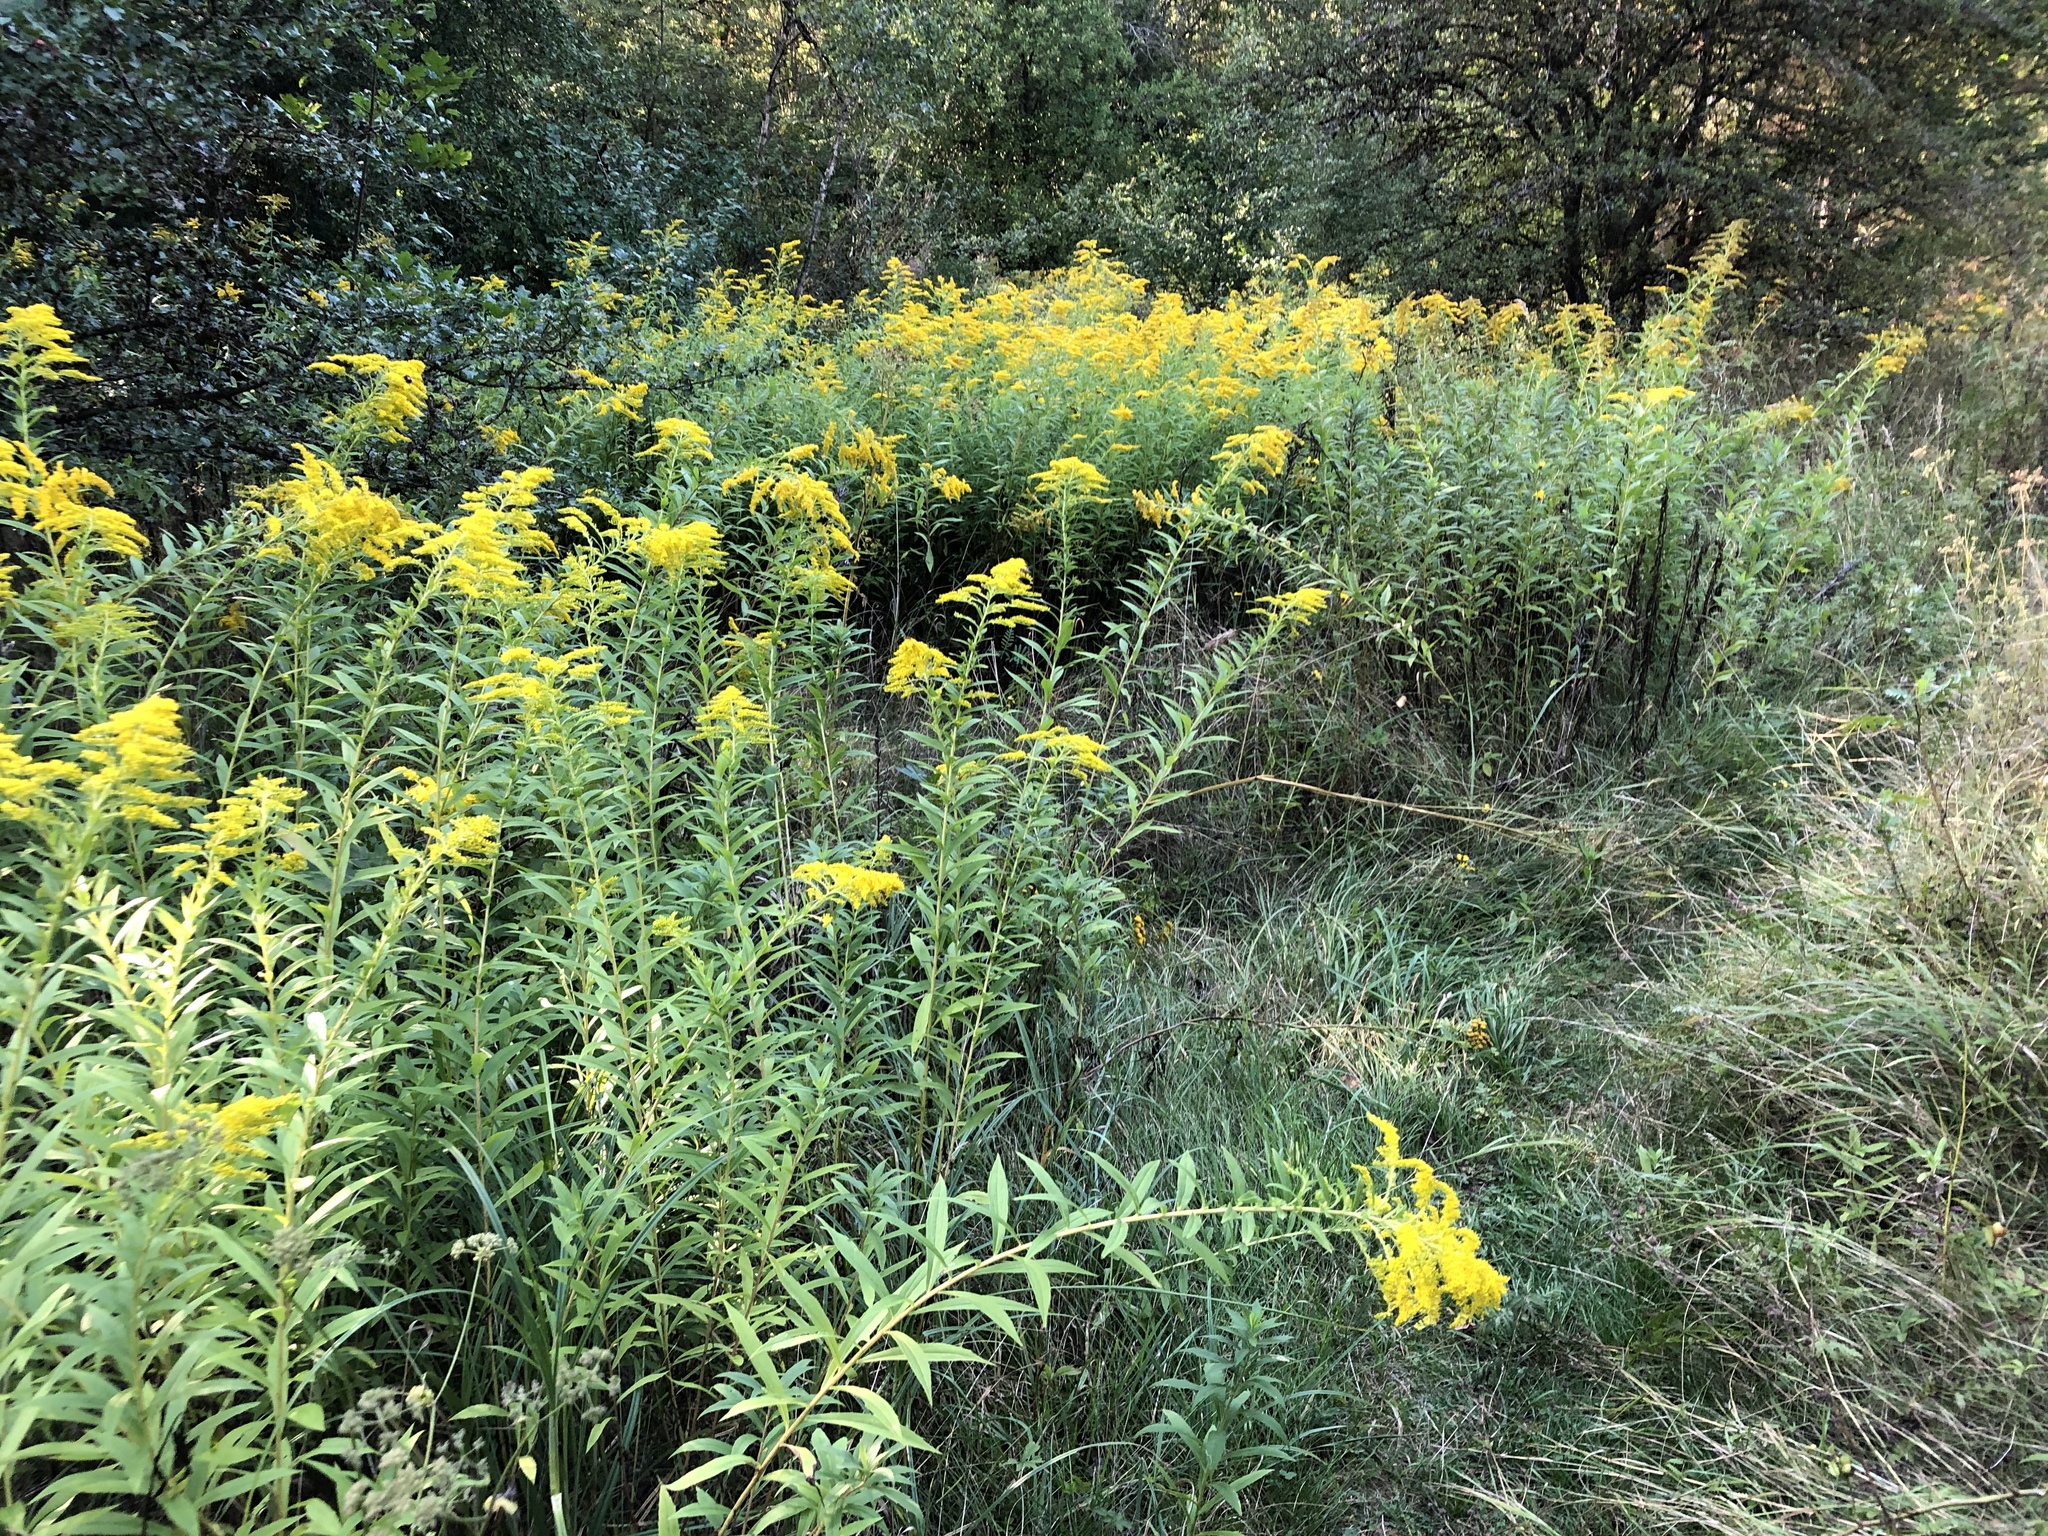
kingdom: Plantae
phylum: Tracheophyta
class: Magnoliopsida
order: Asterales
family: Asteraceae
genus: Solidago
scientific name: Solidago canadensis
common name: Canada goldenrod
